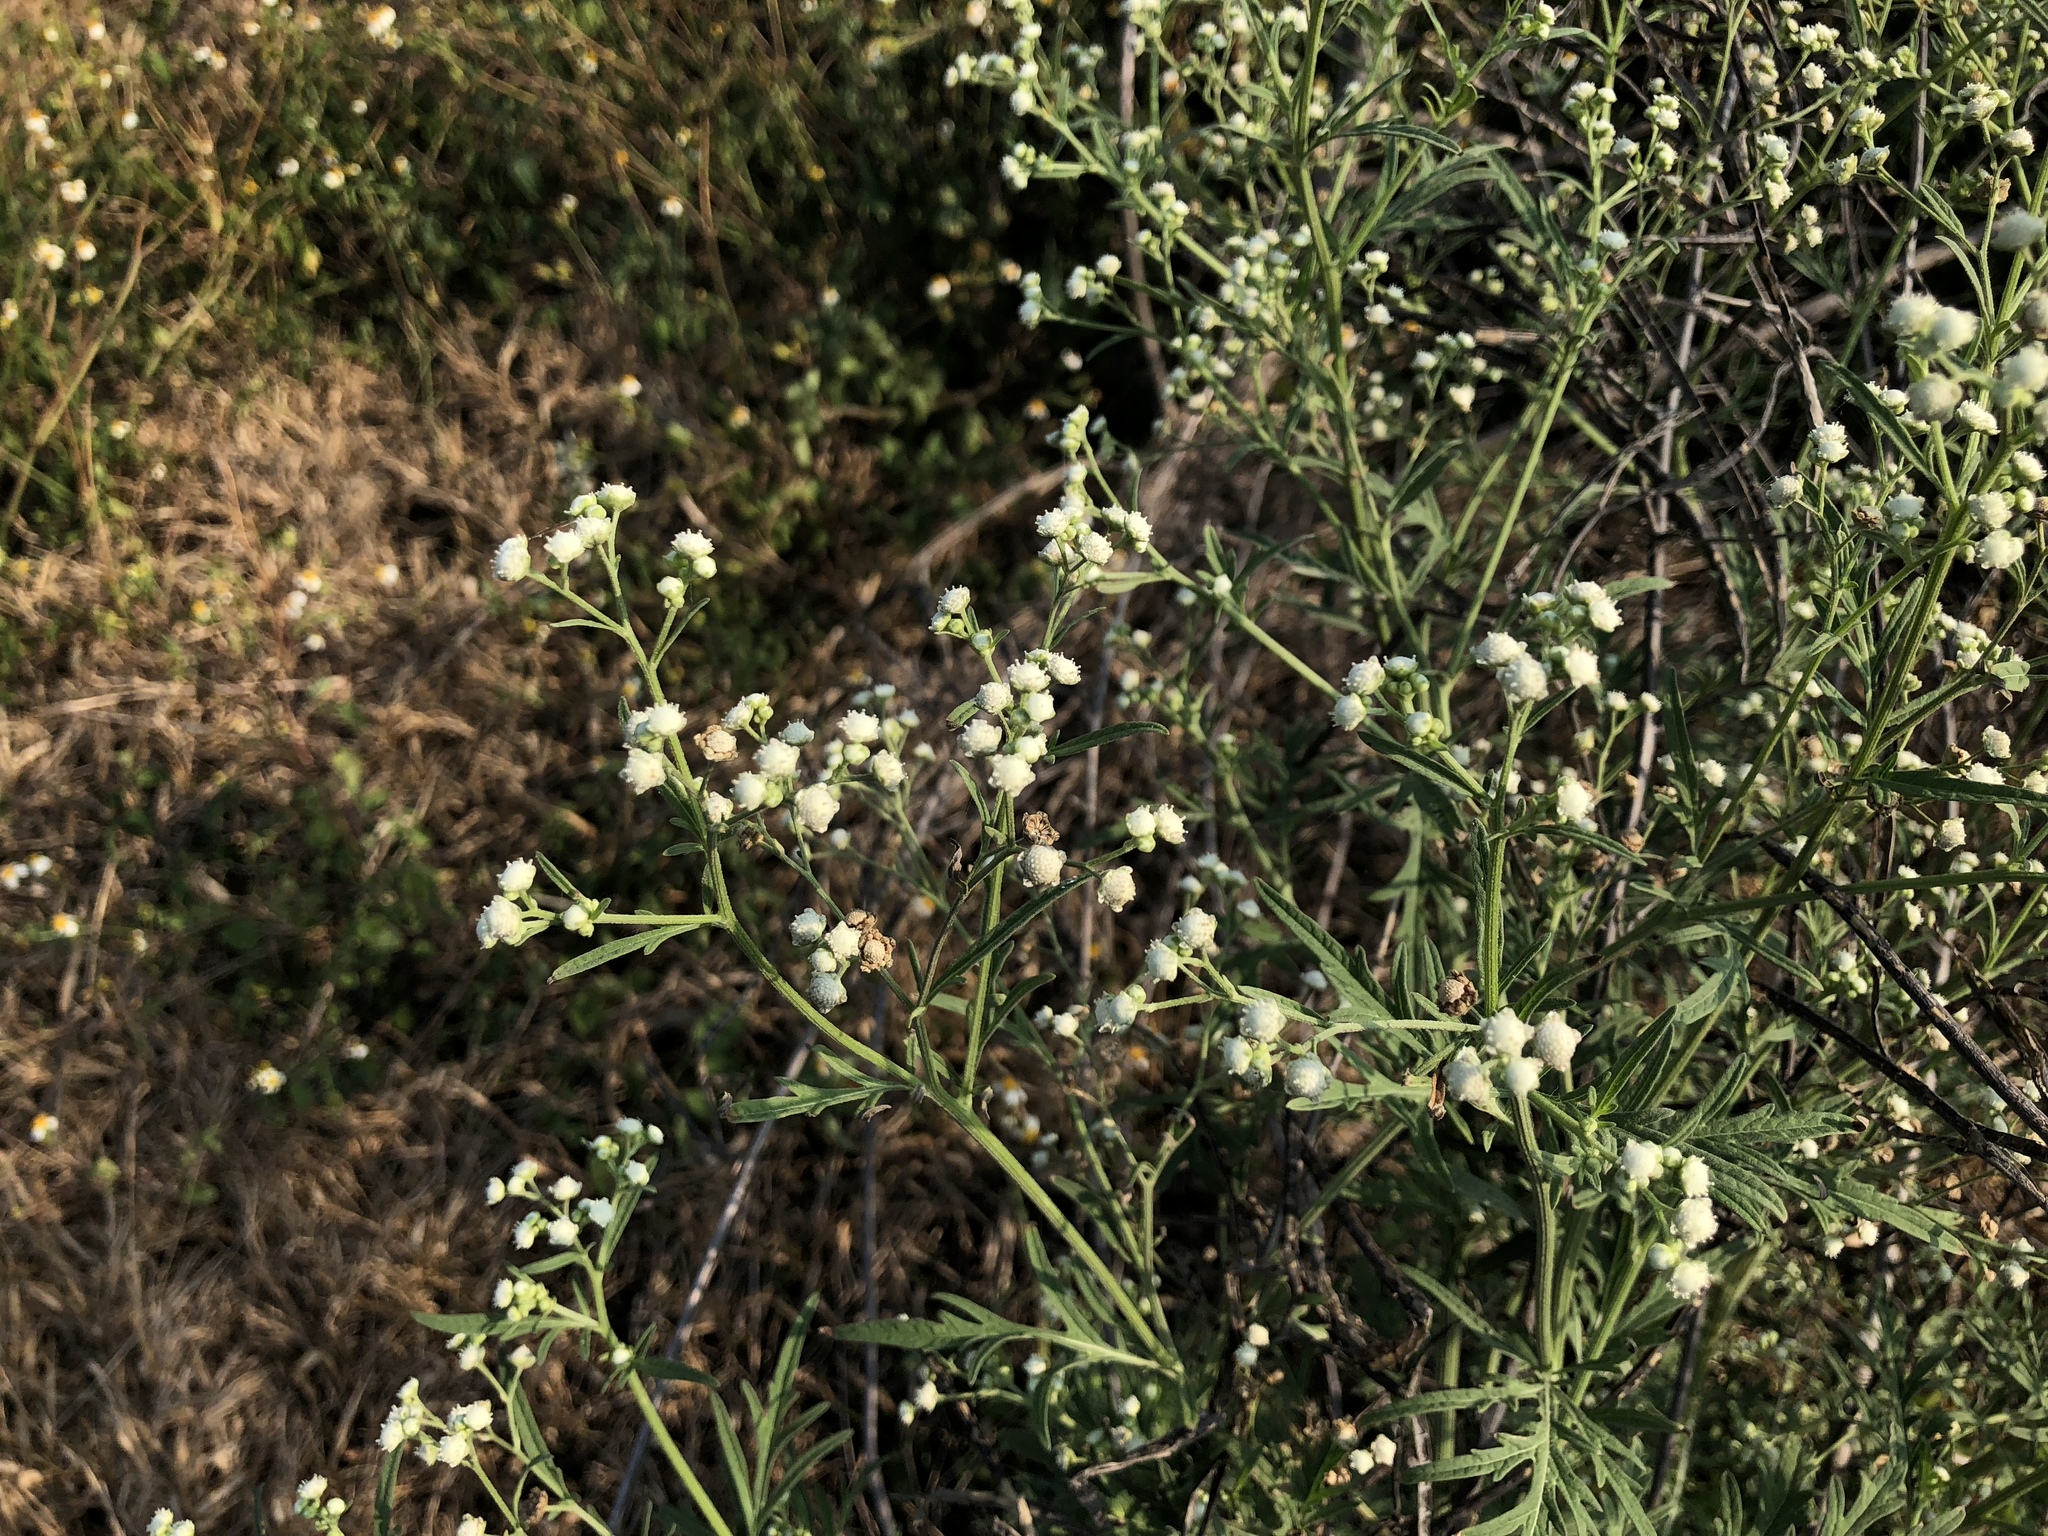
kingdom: Plantae
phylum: Tracheophyta
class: Magnoliopsida
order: Asterales
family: Asteraceae
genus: Parthenium
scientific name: Parthenium hysterophorus
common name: Santa maria feverfew
